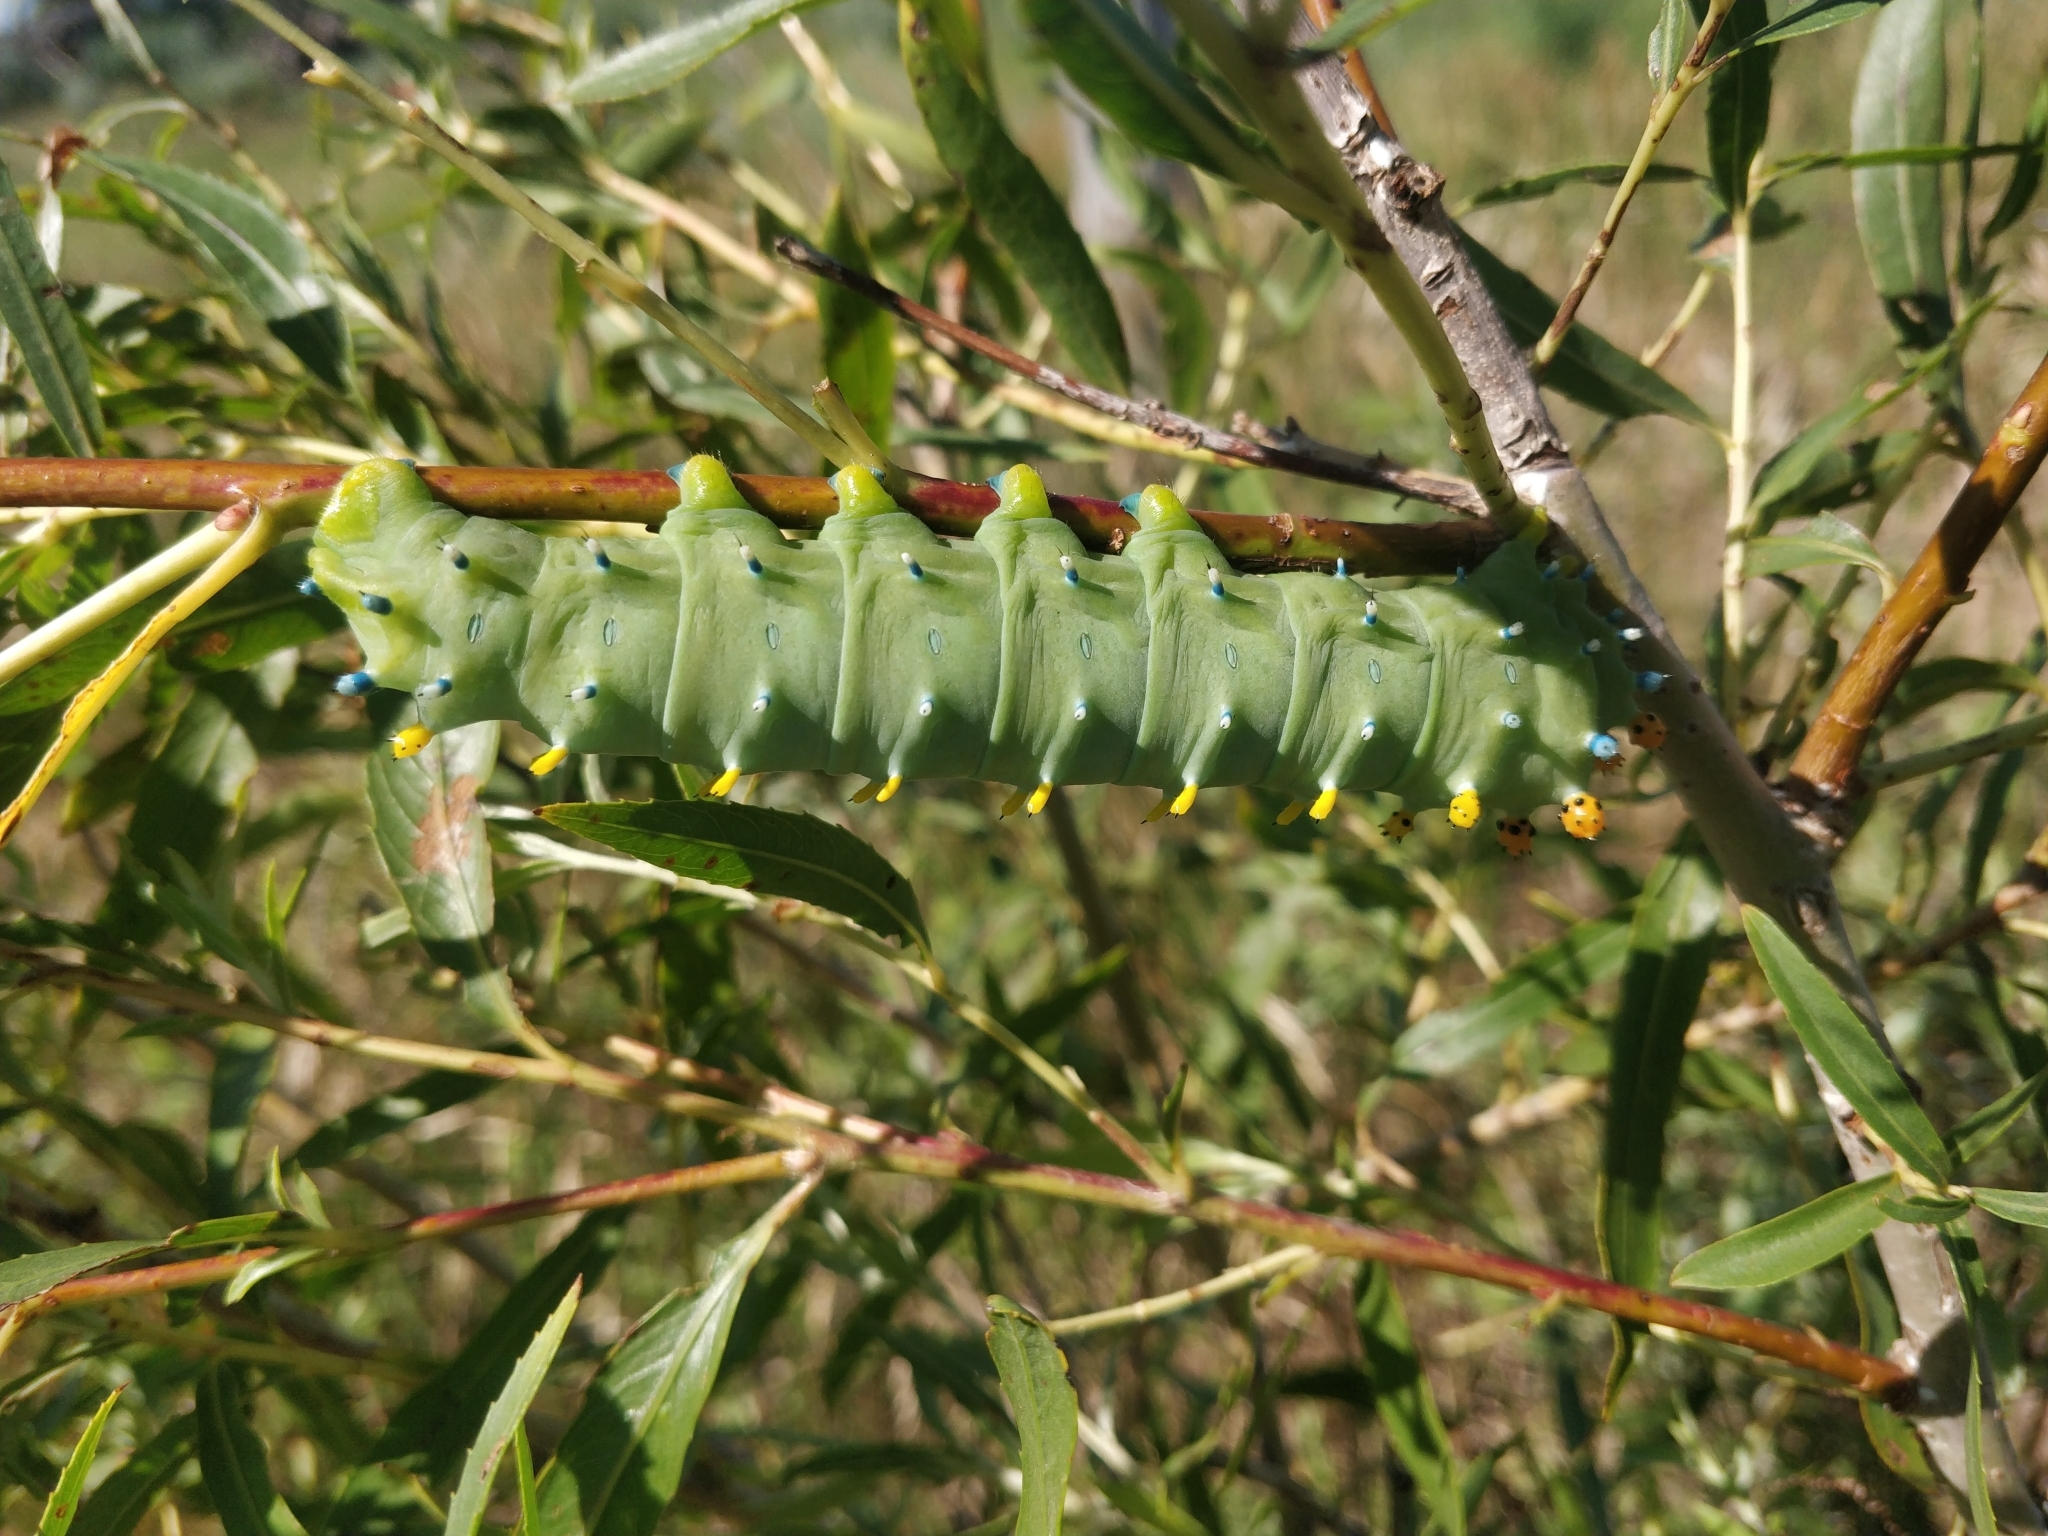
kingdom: Animalia
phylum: Arthropoda
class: Insecta
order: Lepidoptera
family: Saturniidae
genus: Hyalophora
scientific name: Hyalophora cecropia
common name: Cecropia silkmoth
